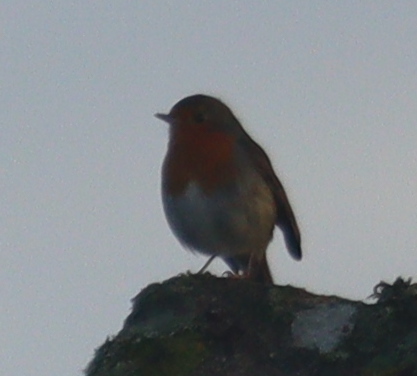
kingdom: Animalia
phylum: Chordata
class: Aves
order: Passeriformes
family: Muscicapidae
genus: Erithacus
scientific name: Erithacus rubecula
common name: European robin
